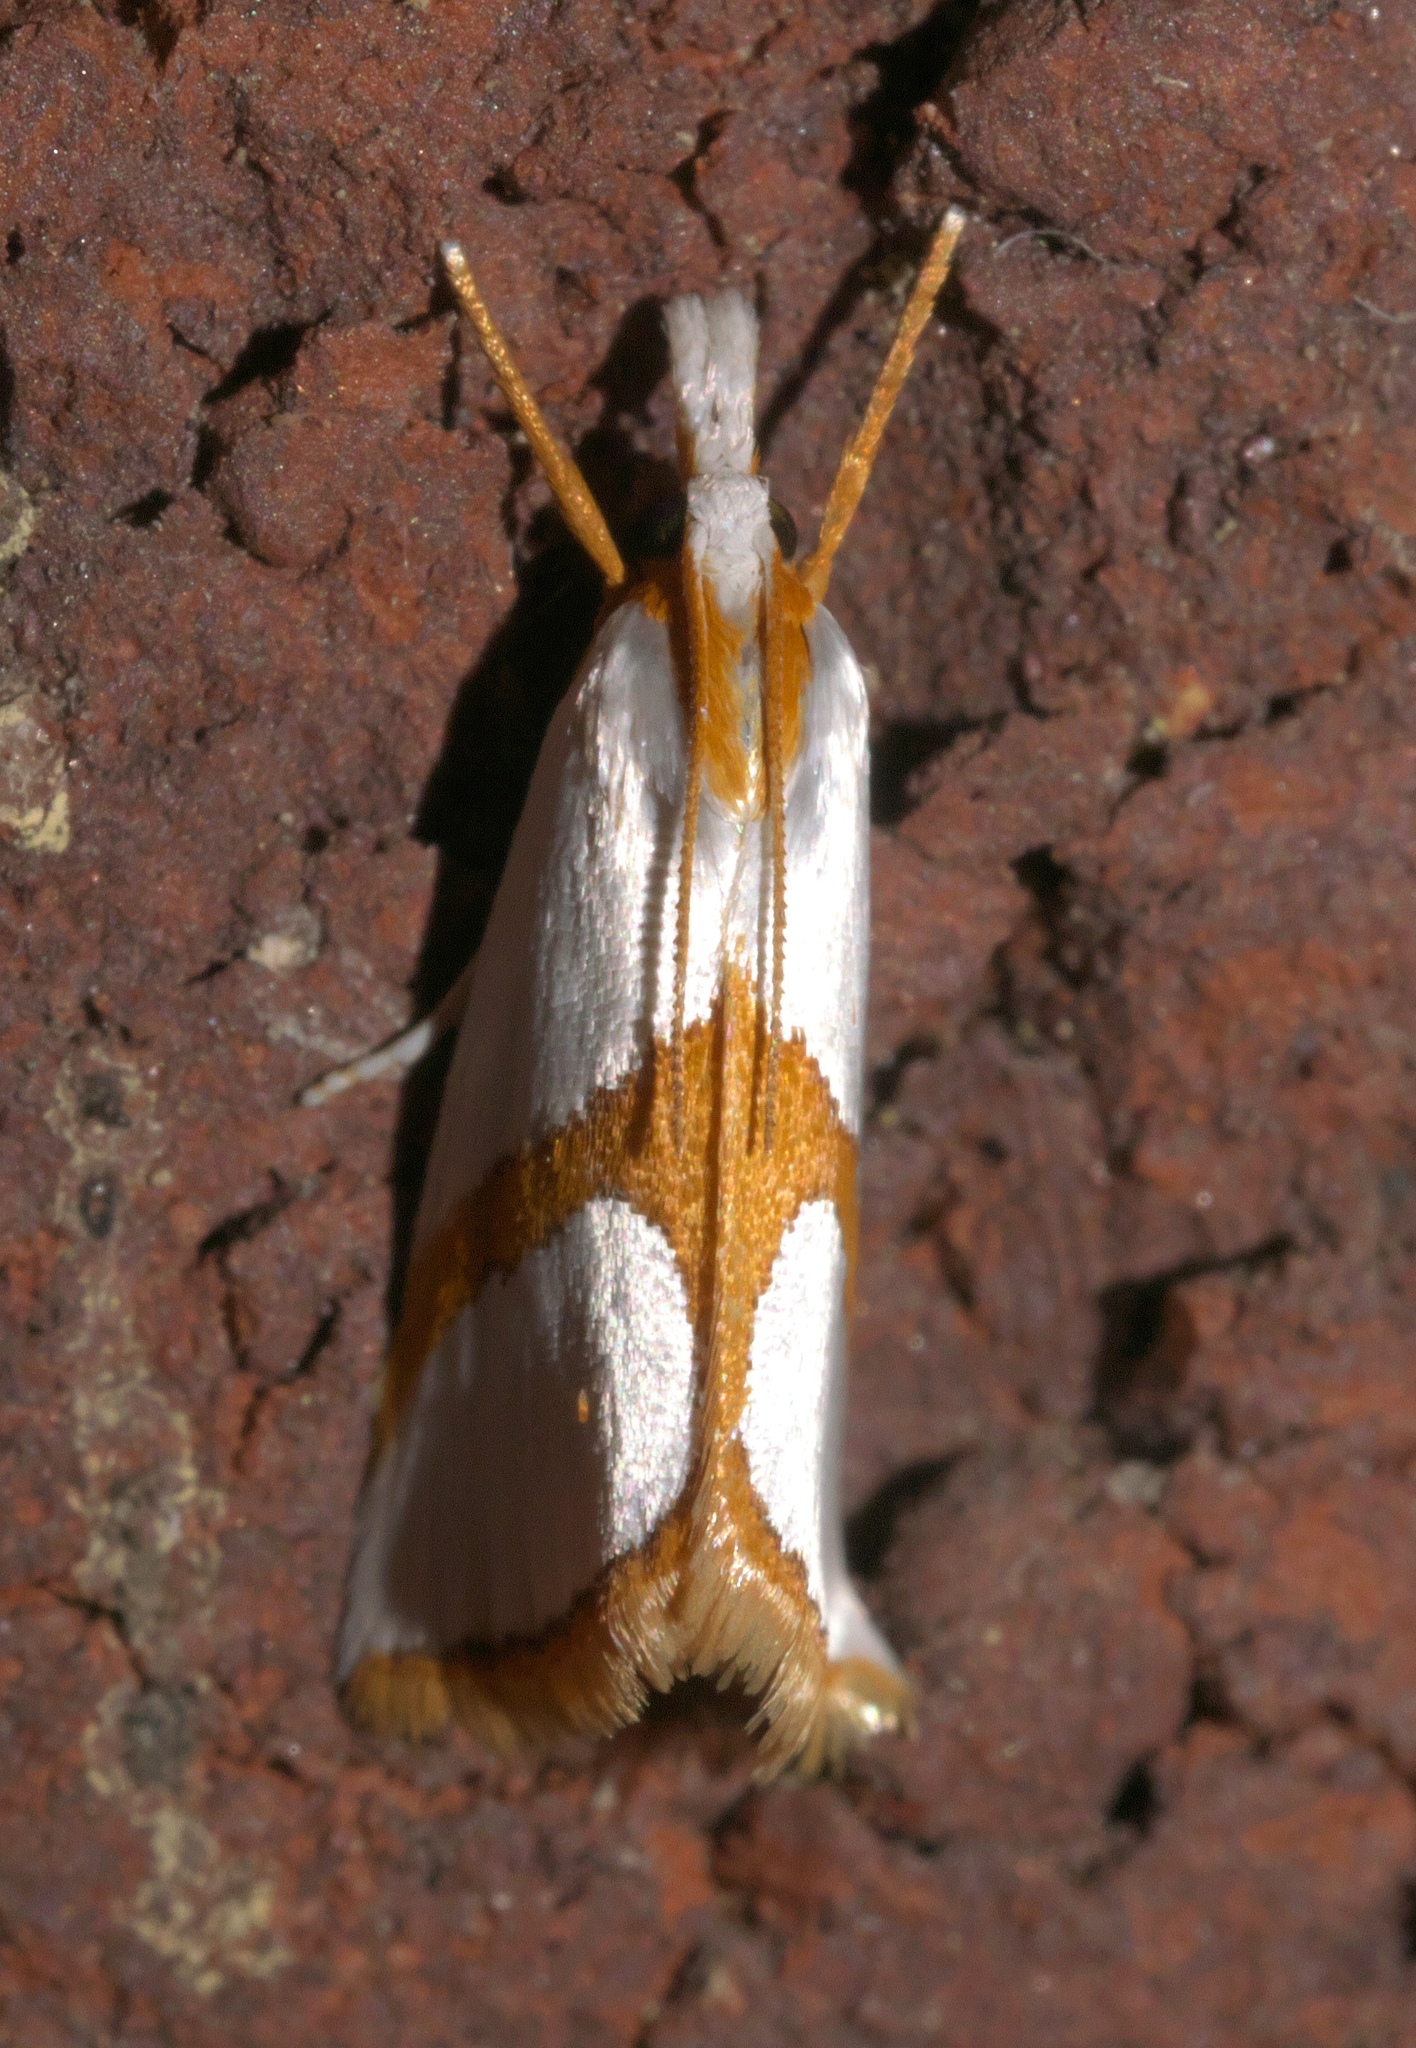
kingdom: Animalia
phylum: Arthropoda
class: Insecta
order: Lepidoptera
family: Crambidae
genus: Argyria
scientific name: Argyria auratella
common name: Curve-lined argyria moth
